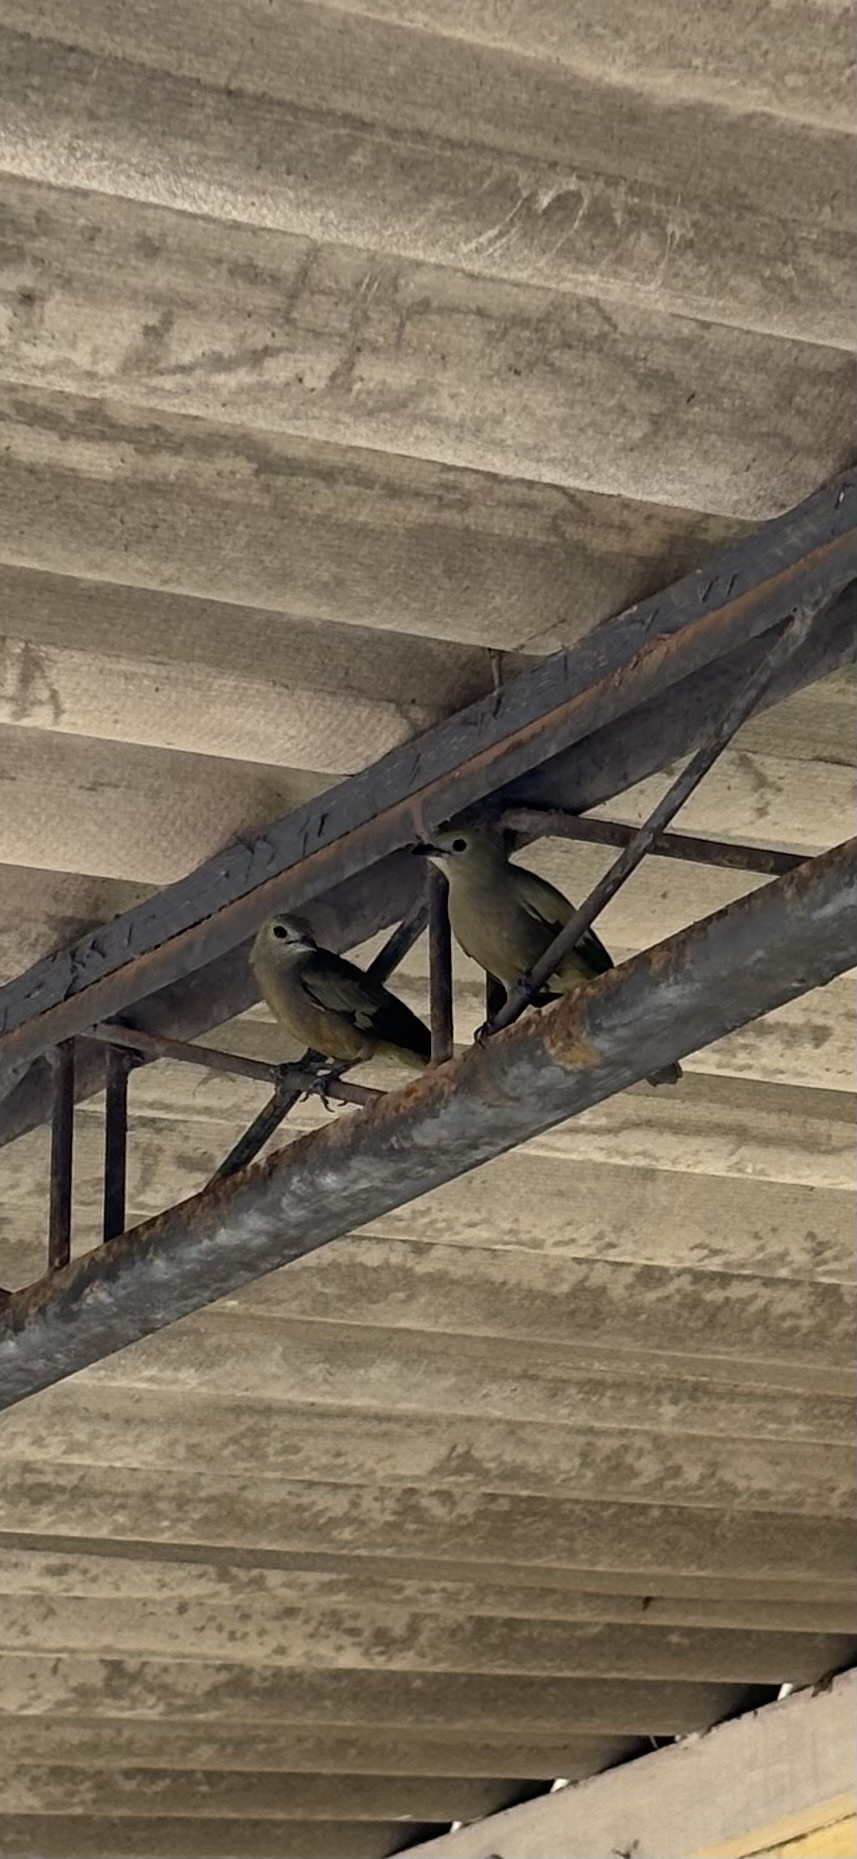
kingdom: Animalia
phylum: Chordata
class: Aves
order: Passeriformes
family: Thraupidae
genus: Thraupis
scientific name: Thraupis palmarum
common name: Palm tanager
